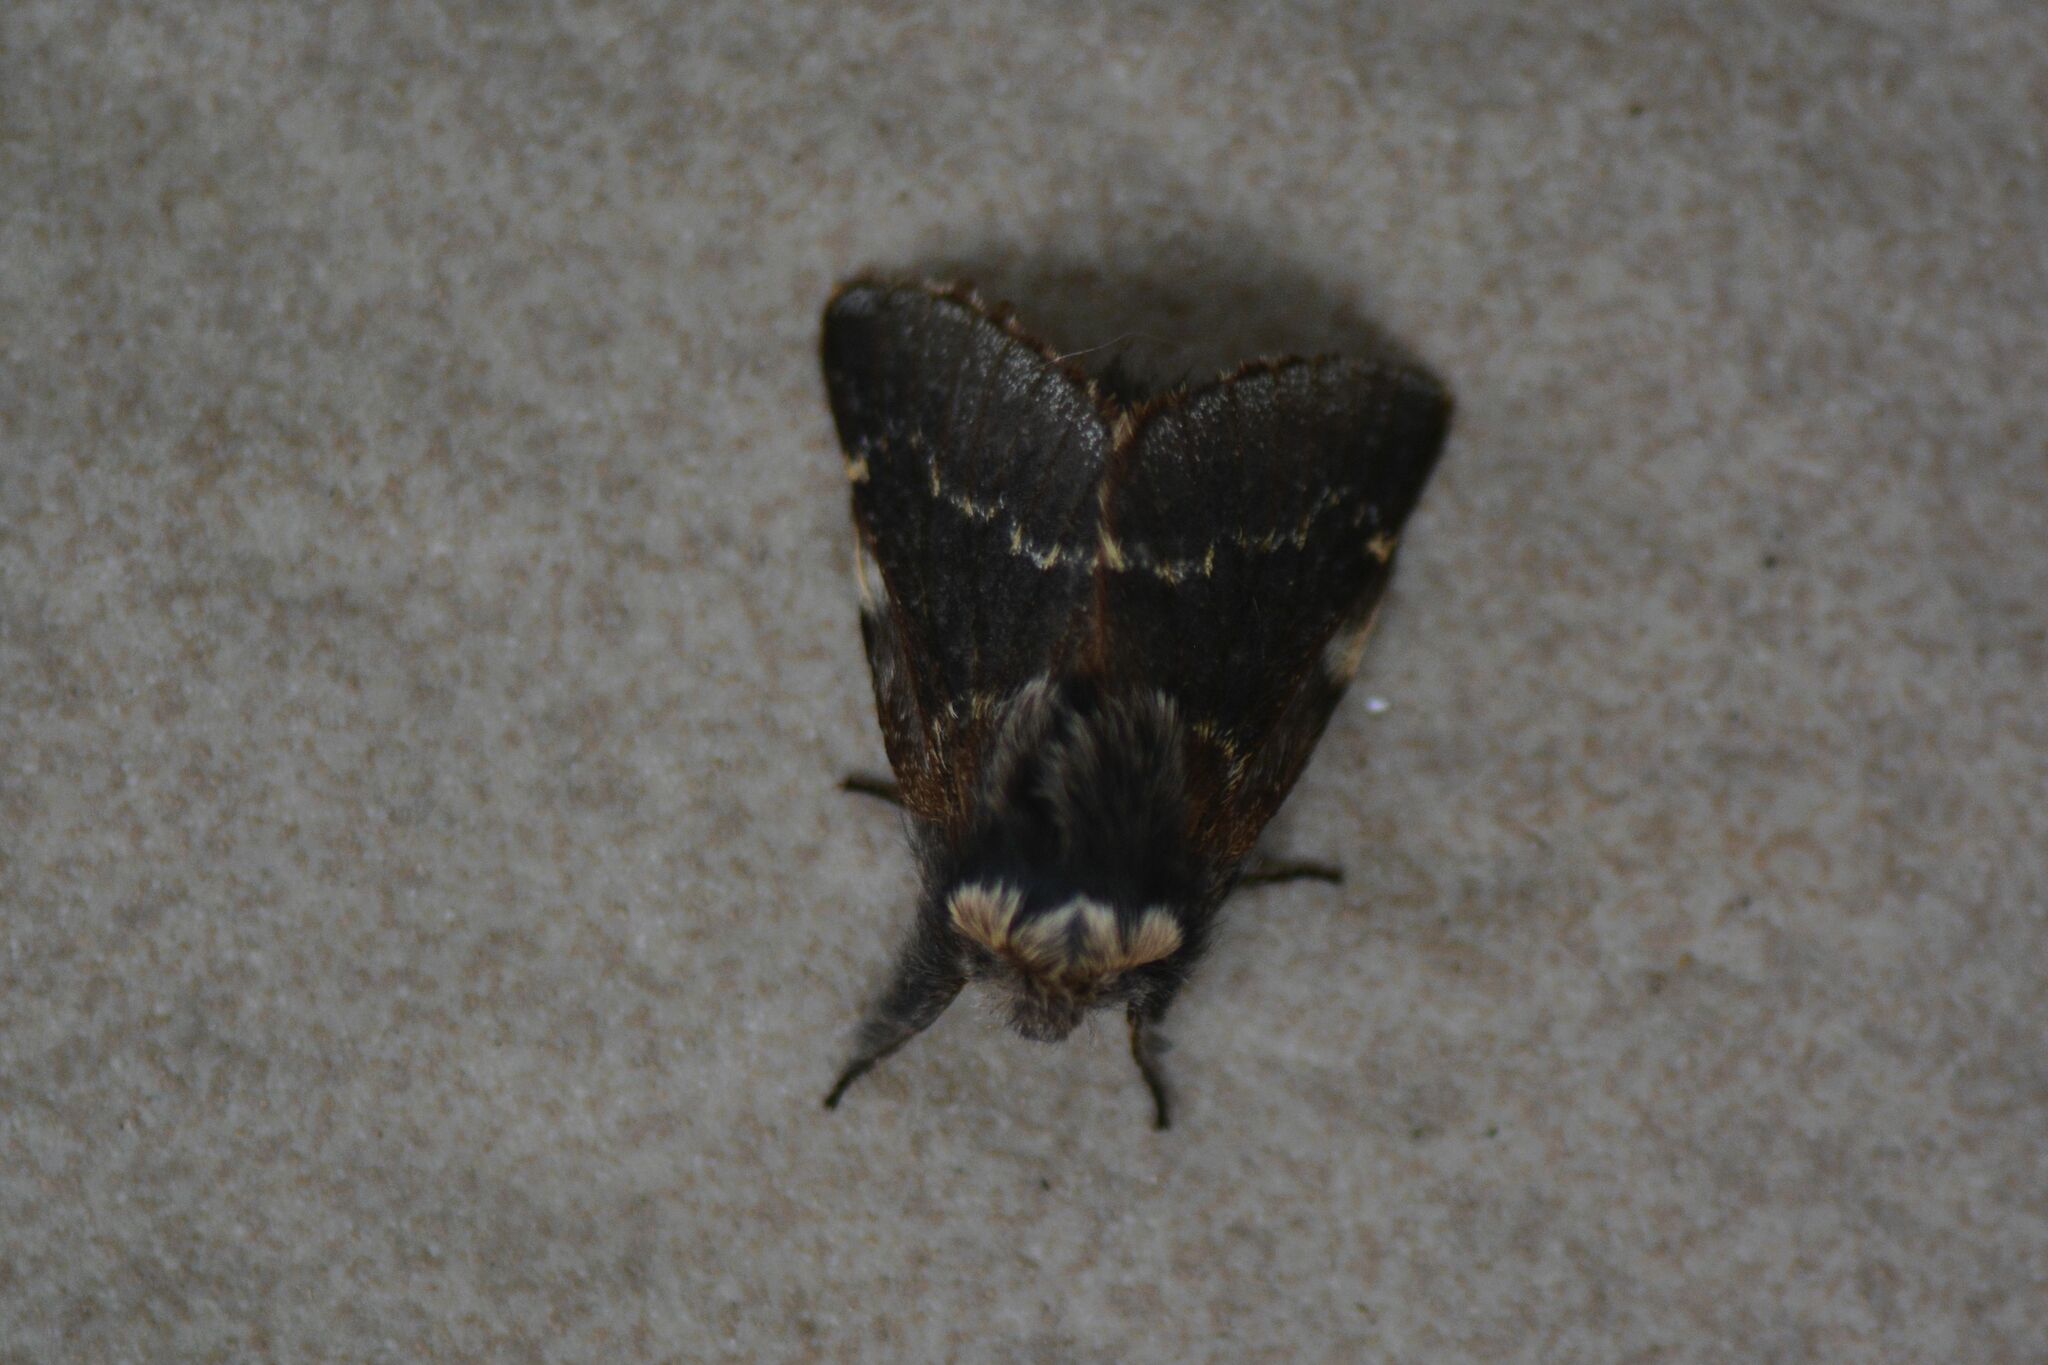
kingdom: Animalia
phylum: Arthropoda
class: Insecta
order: Lepidoptera
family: Lasiocampidae
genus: Poecilocampa
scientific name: Poecilocampa populi
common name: December moth
